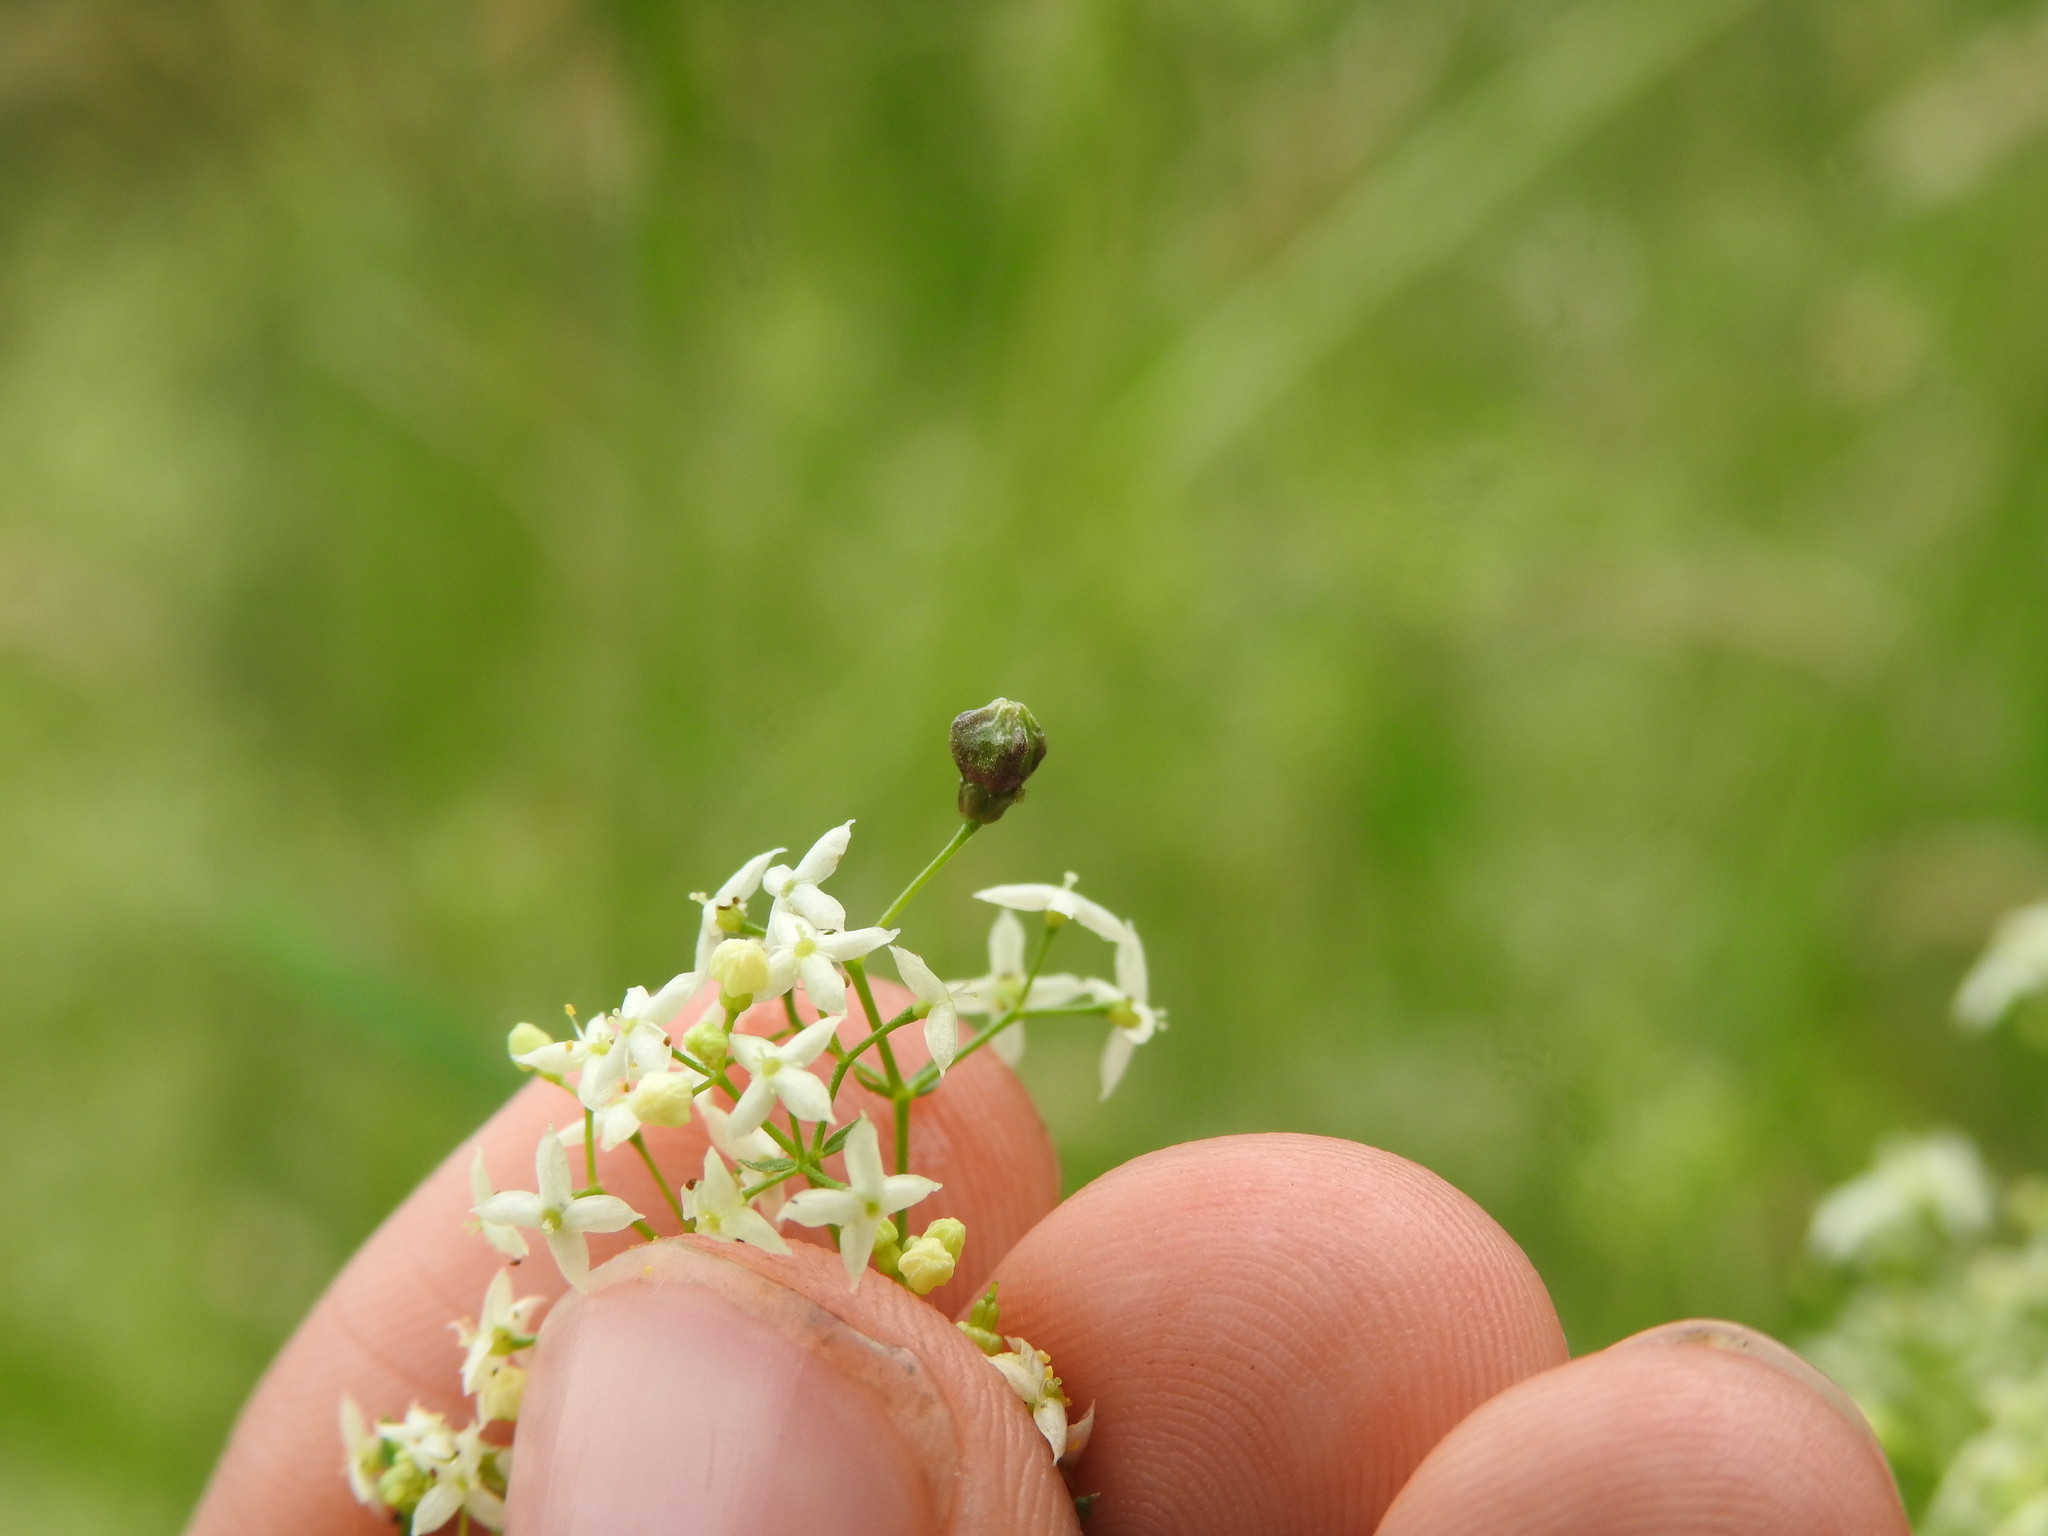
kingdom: Animalia
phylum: Arthropoda
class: Insecta
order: Diptera
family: Cecidomyiidae
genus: Schizomyia
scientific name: Schizomyia galiorum
